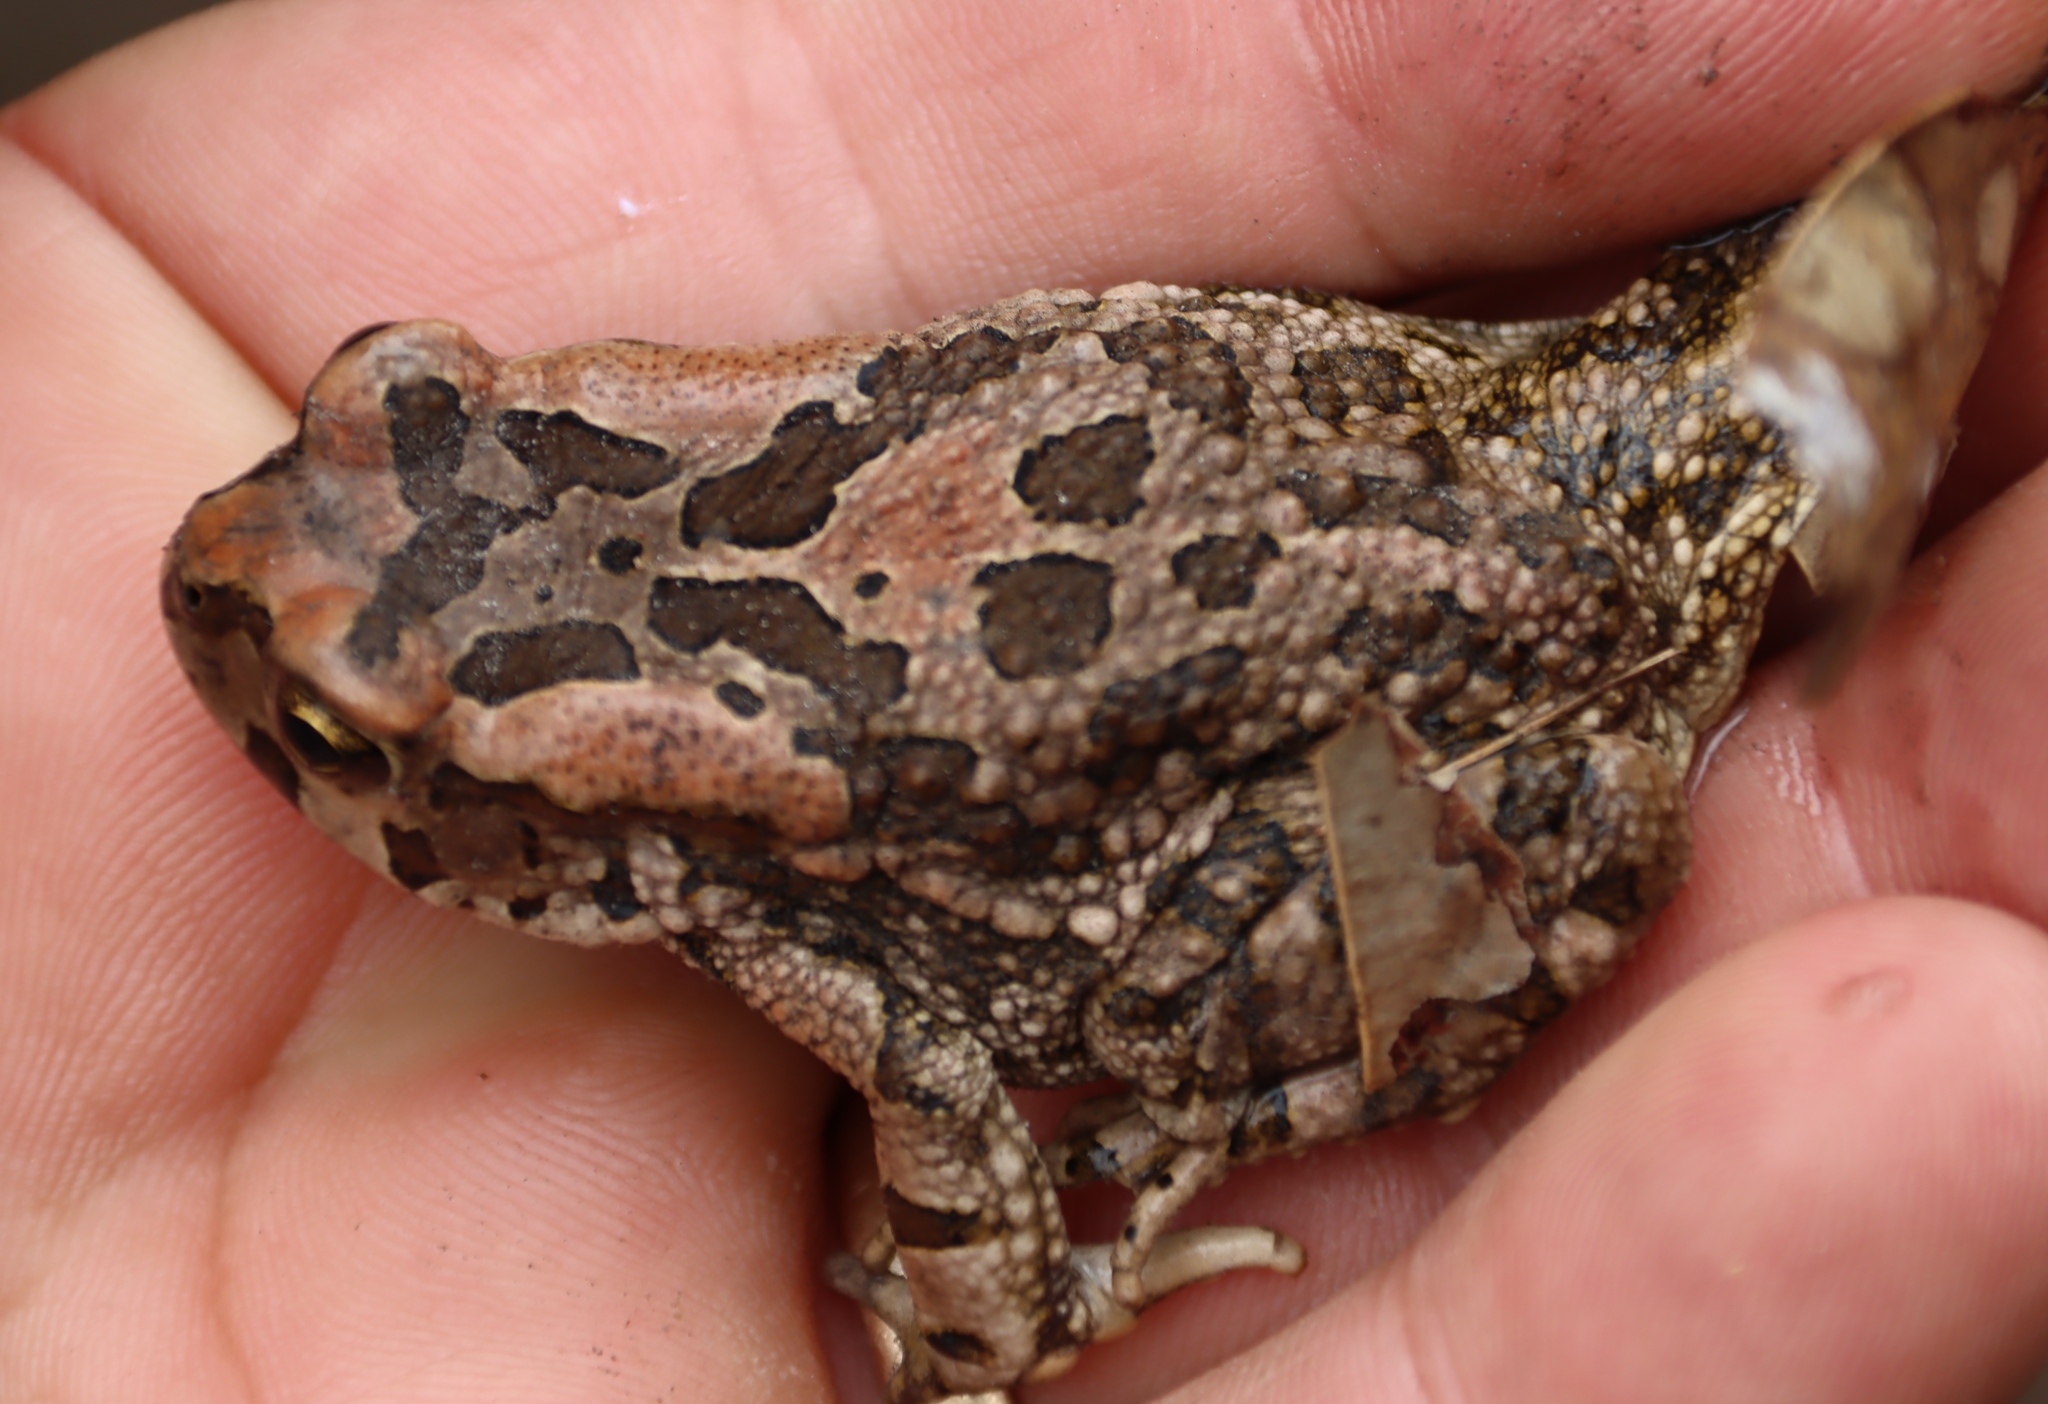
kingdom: Animalia
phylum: Chordata
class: Amphibia
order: Anura
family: Bufonidae
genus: Sclerophrys
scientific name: Sclerophrys capensis
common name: Ranger’s toad
